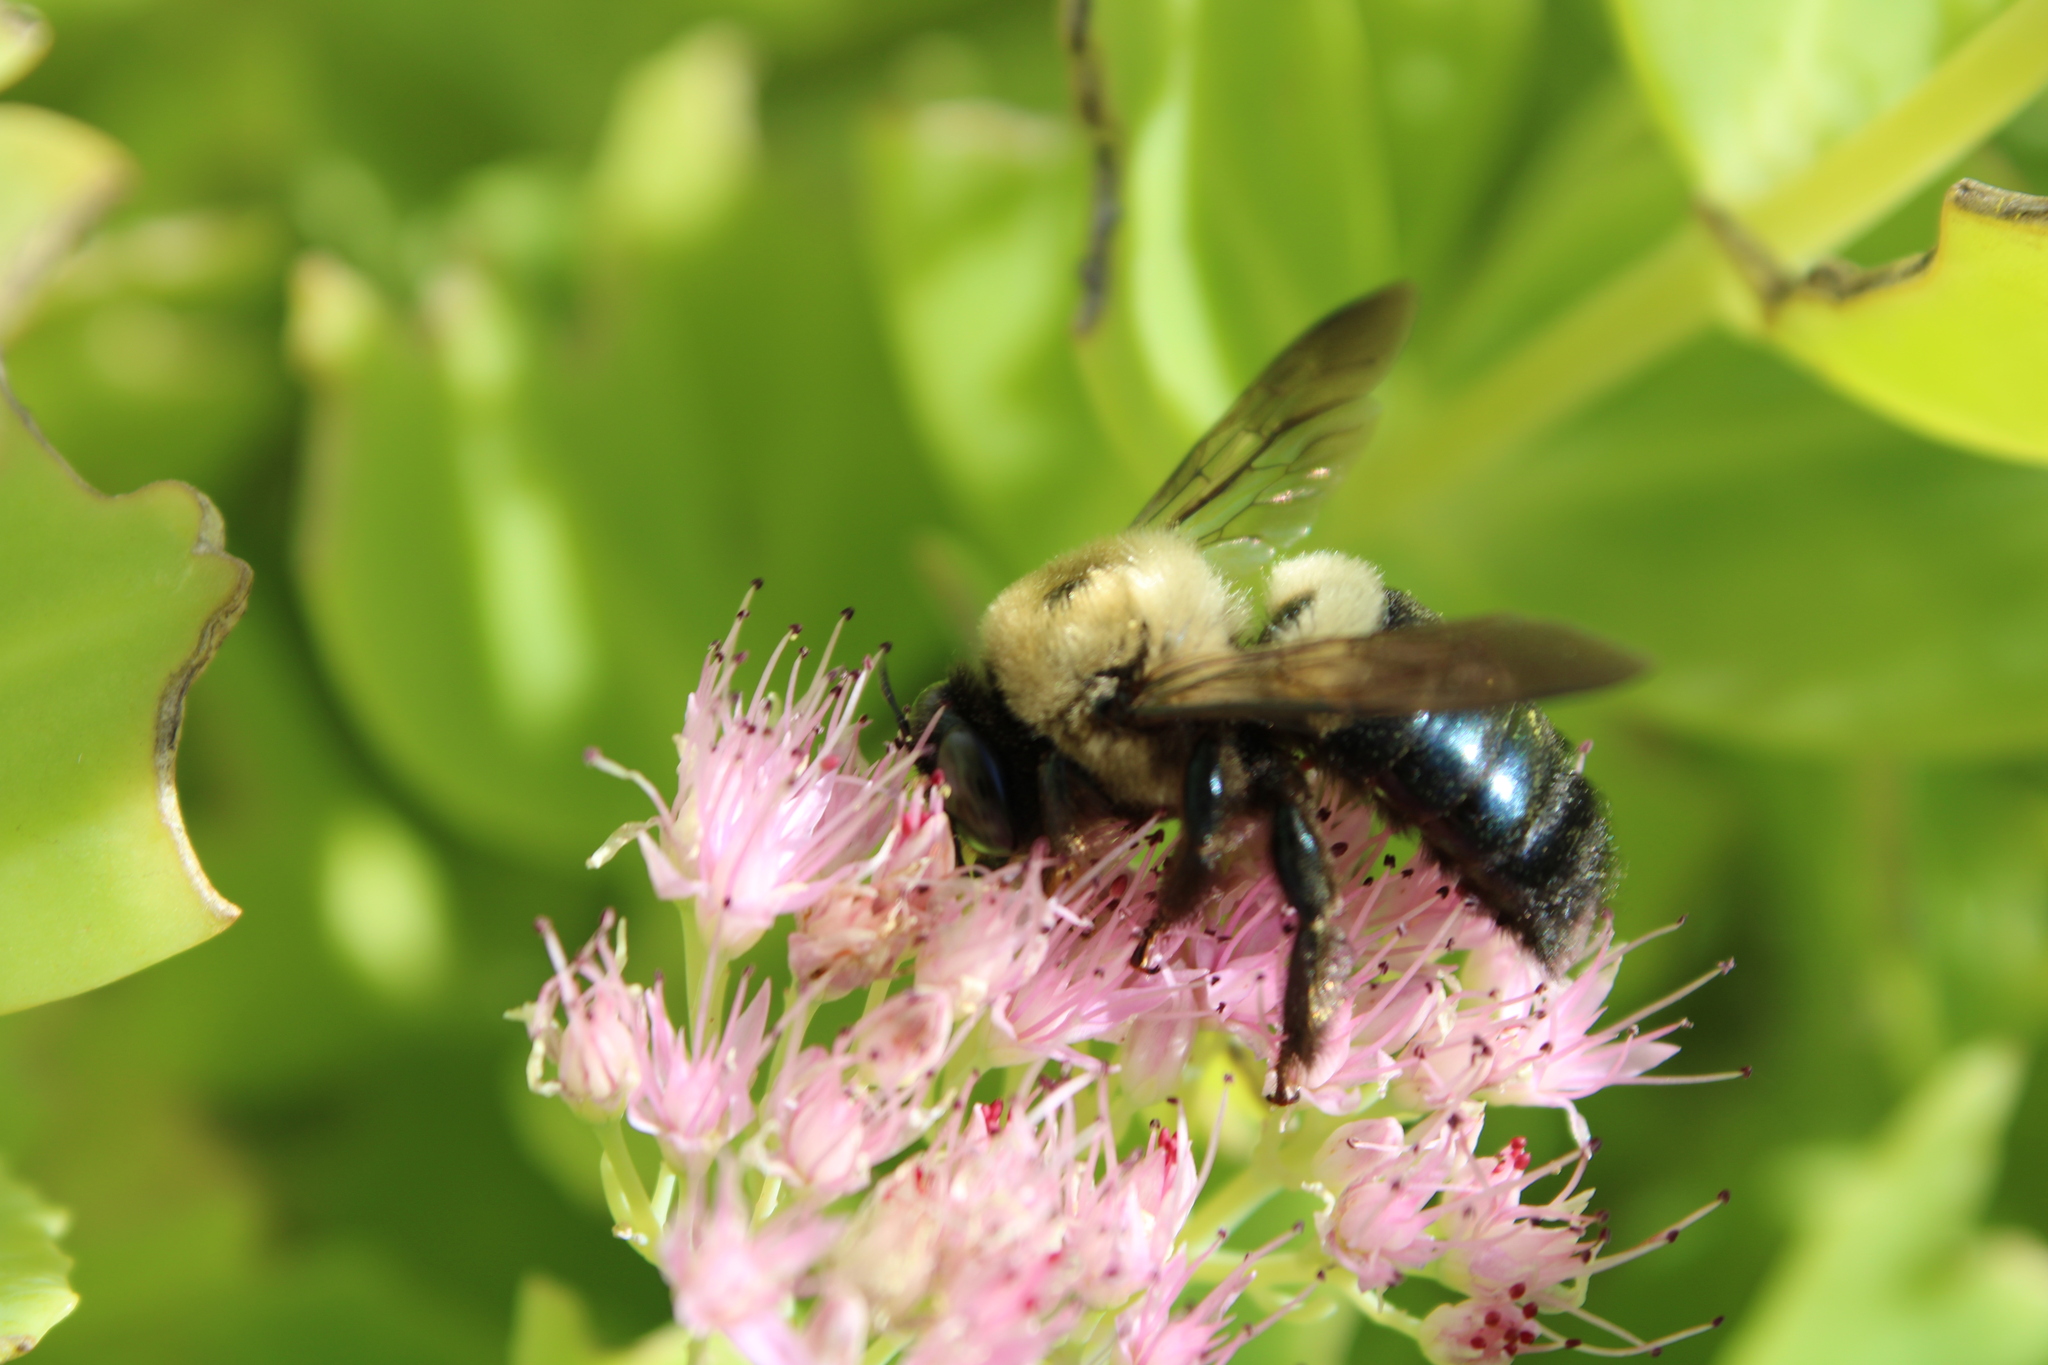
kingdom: Animalia
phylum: Arthropoda
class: Insecta
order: Hymenoptera
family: Apidae
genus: Xylocopa
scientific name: Xylocopa virginica
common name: Carpenter bee
